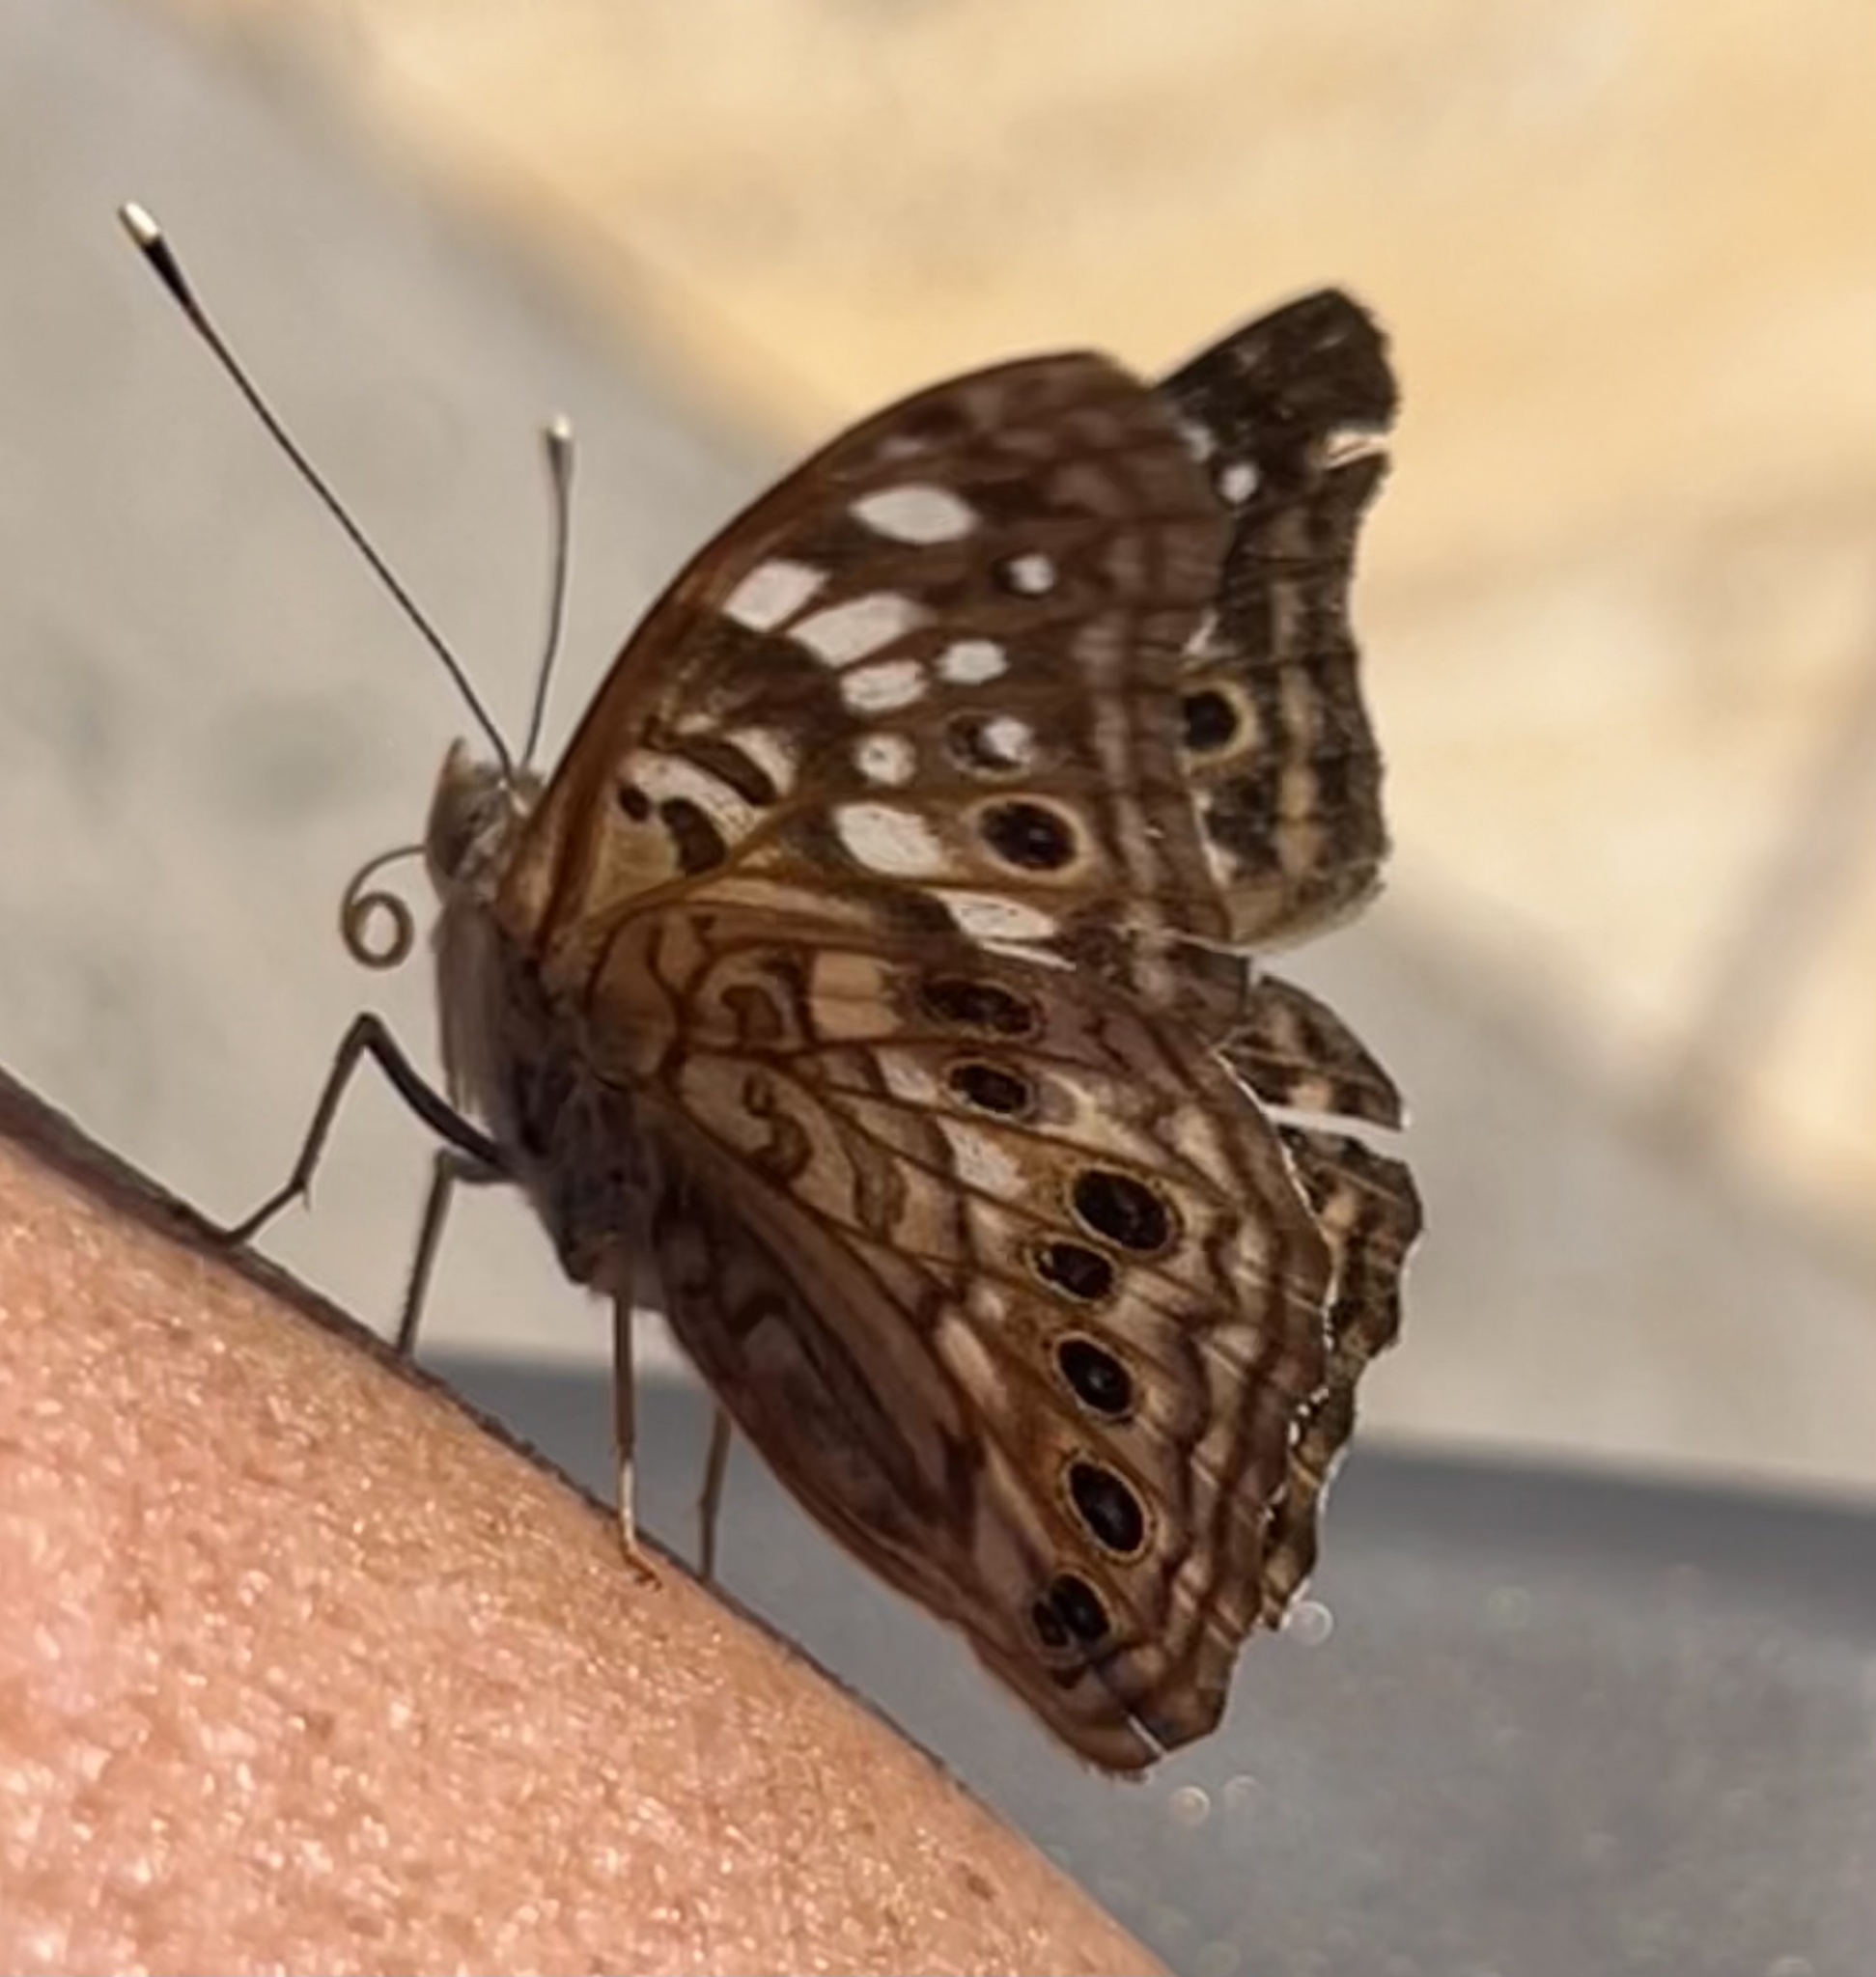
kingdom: Animalia
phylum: Arthropoda
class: Insecta
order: Lepidoptera
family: Nymphalidae
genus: Asterocampa
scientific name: Asterocampa celtis
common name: Hackberry emperor
